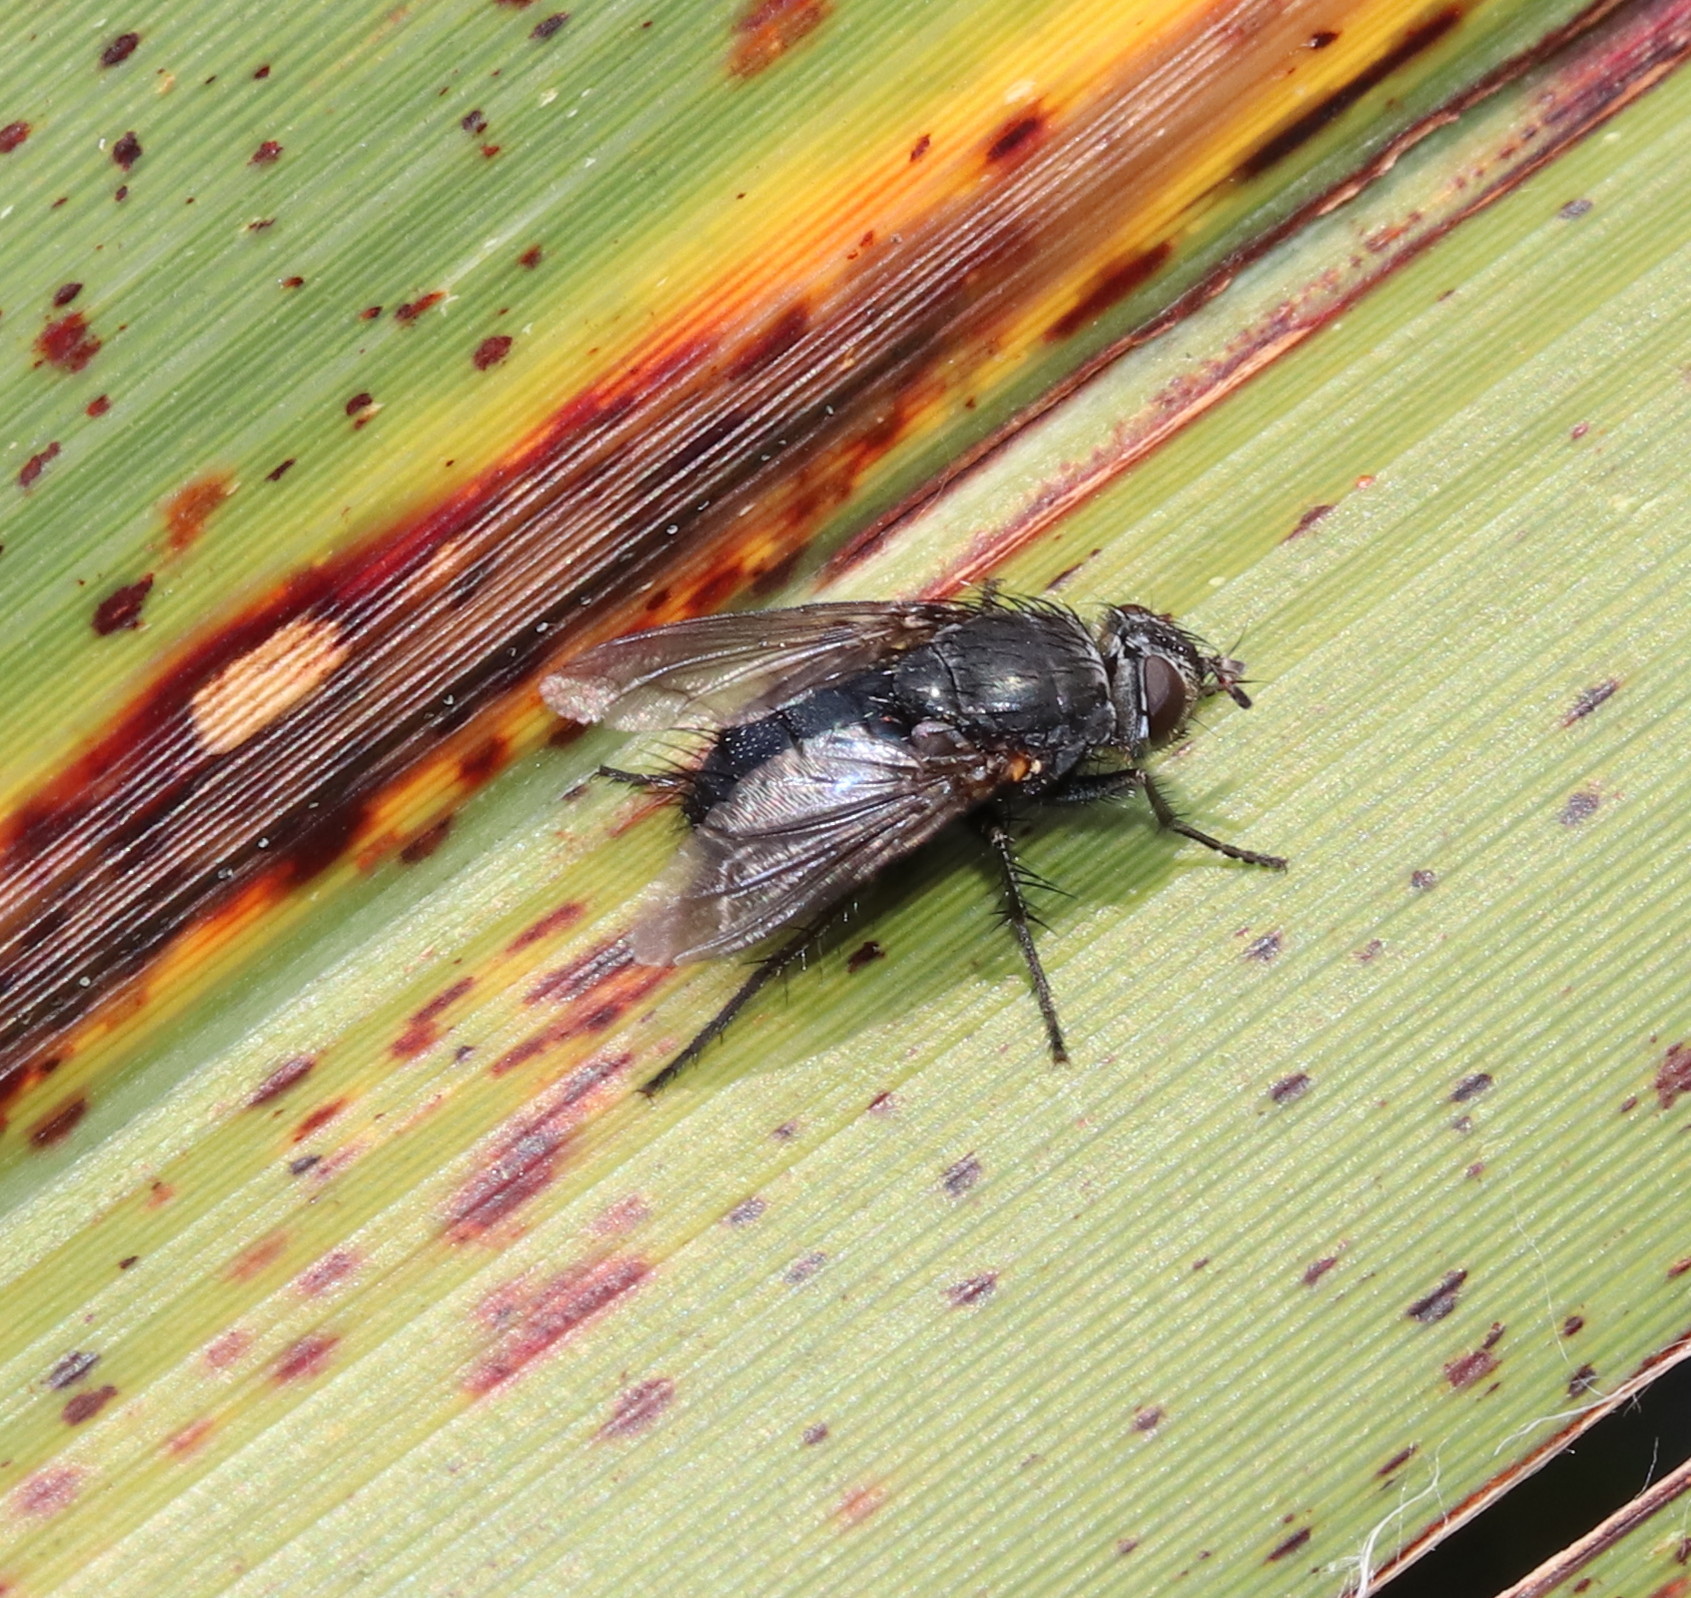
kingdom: Animalia
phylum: Arthropoda
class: Insecta
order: Diptera
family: Calliphoridae
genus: Calliphora
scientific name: Calliphora quadrimaculata
